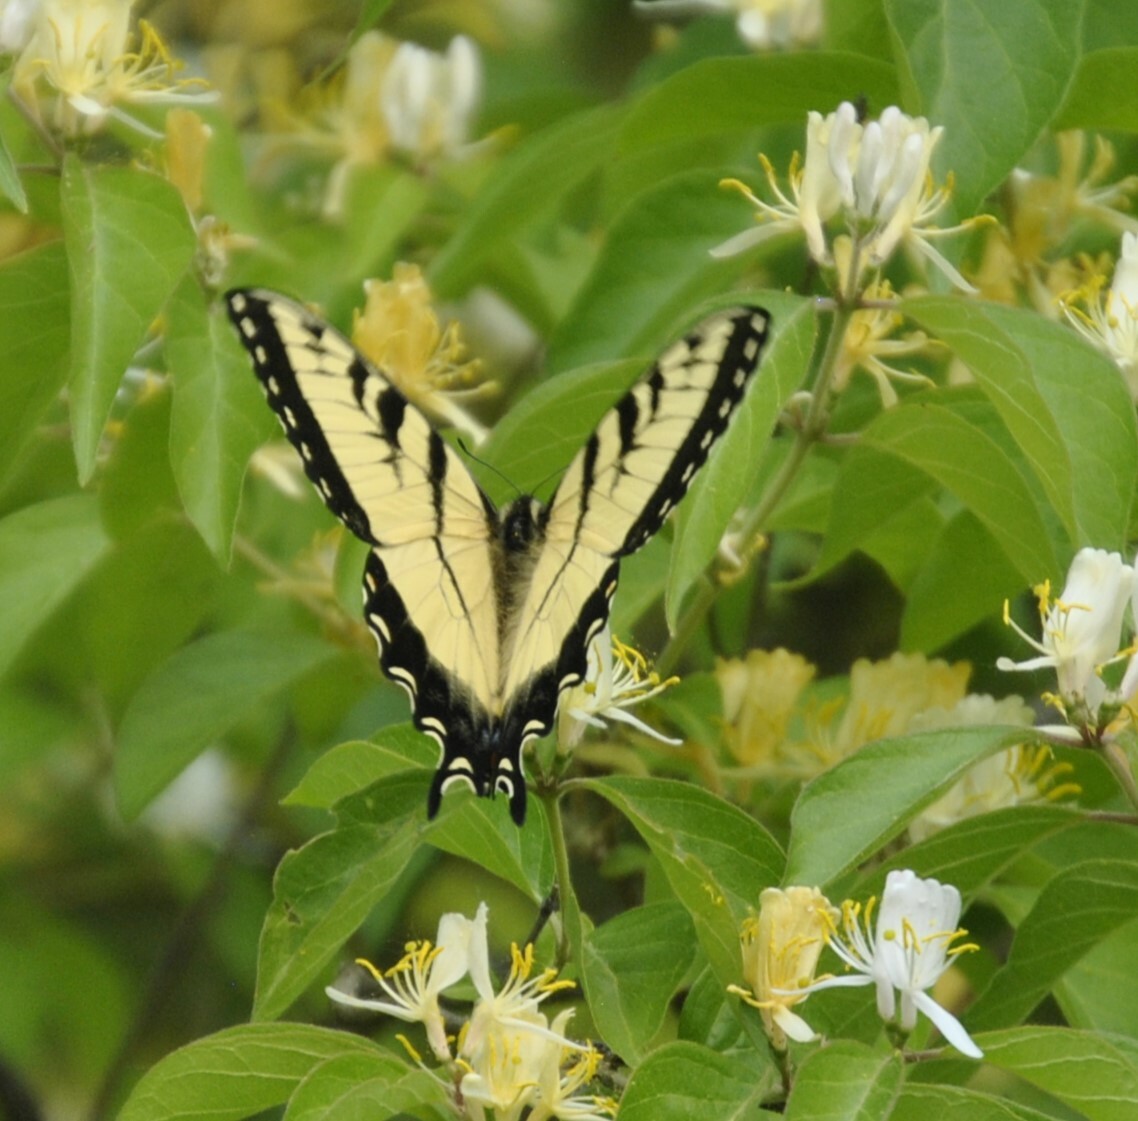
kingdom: Animalia
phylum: Arthropoda
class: Insecta
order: Lepidoptera
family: Papilionidae
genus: Papilio
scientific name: Papilio glaucus
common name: Tiger swallowtail
